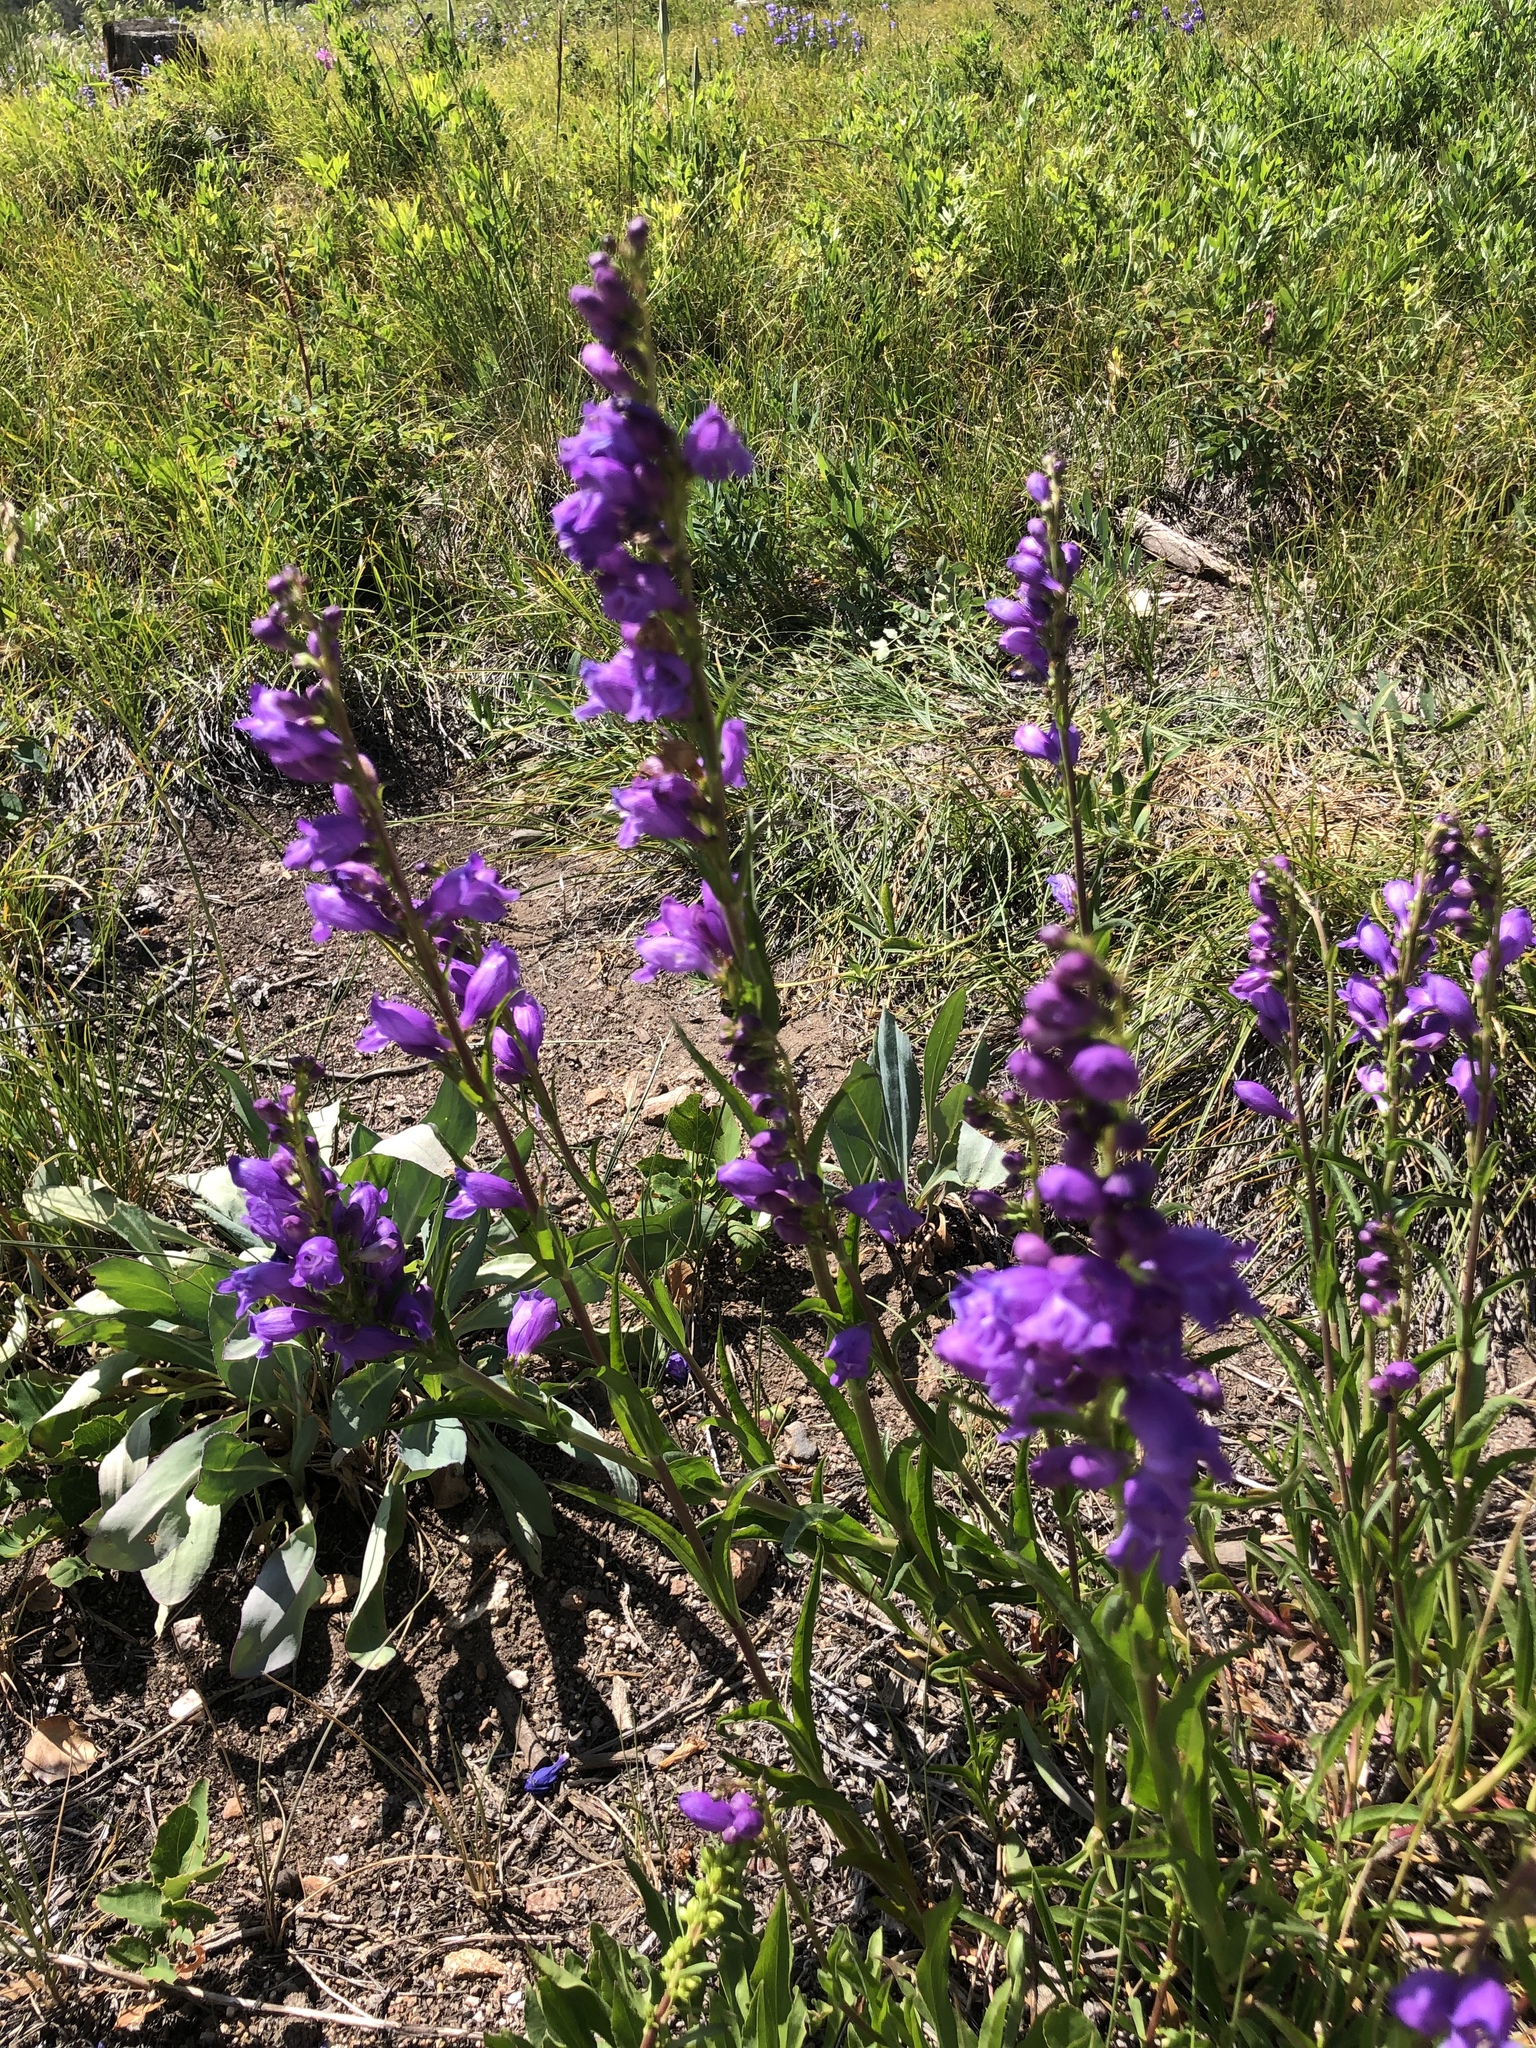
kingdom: Plantae
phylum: Tracheophyta
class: Magnoliopsida
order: Lamiales
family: Plantaginaceae
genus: Penstemon
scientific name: Penstemon strictus
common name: Rocky mountain penstemon
